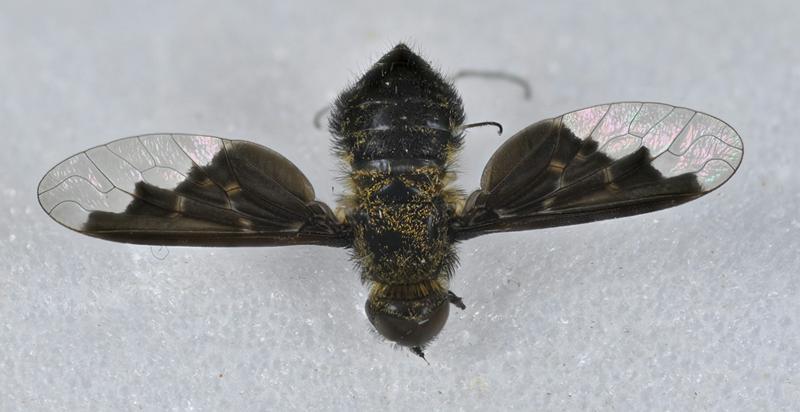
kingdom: Animalia
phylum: Arthropoda
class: Insecta
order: Diptera
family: Bombyliidae
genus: Hemipenthes
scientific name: Hemipenthes webberi
